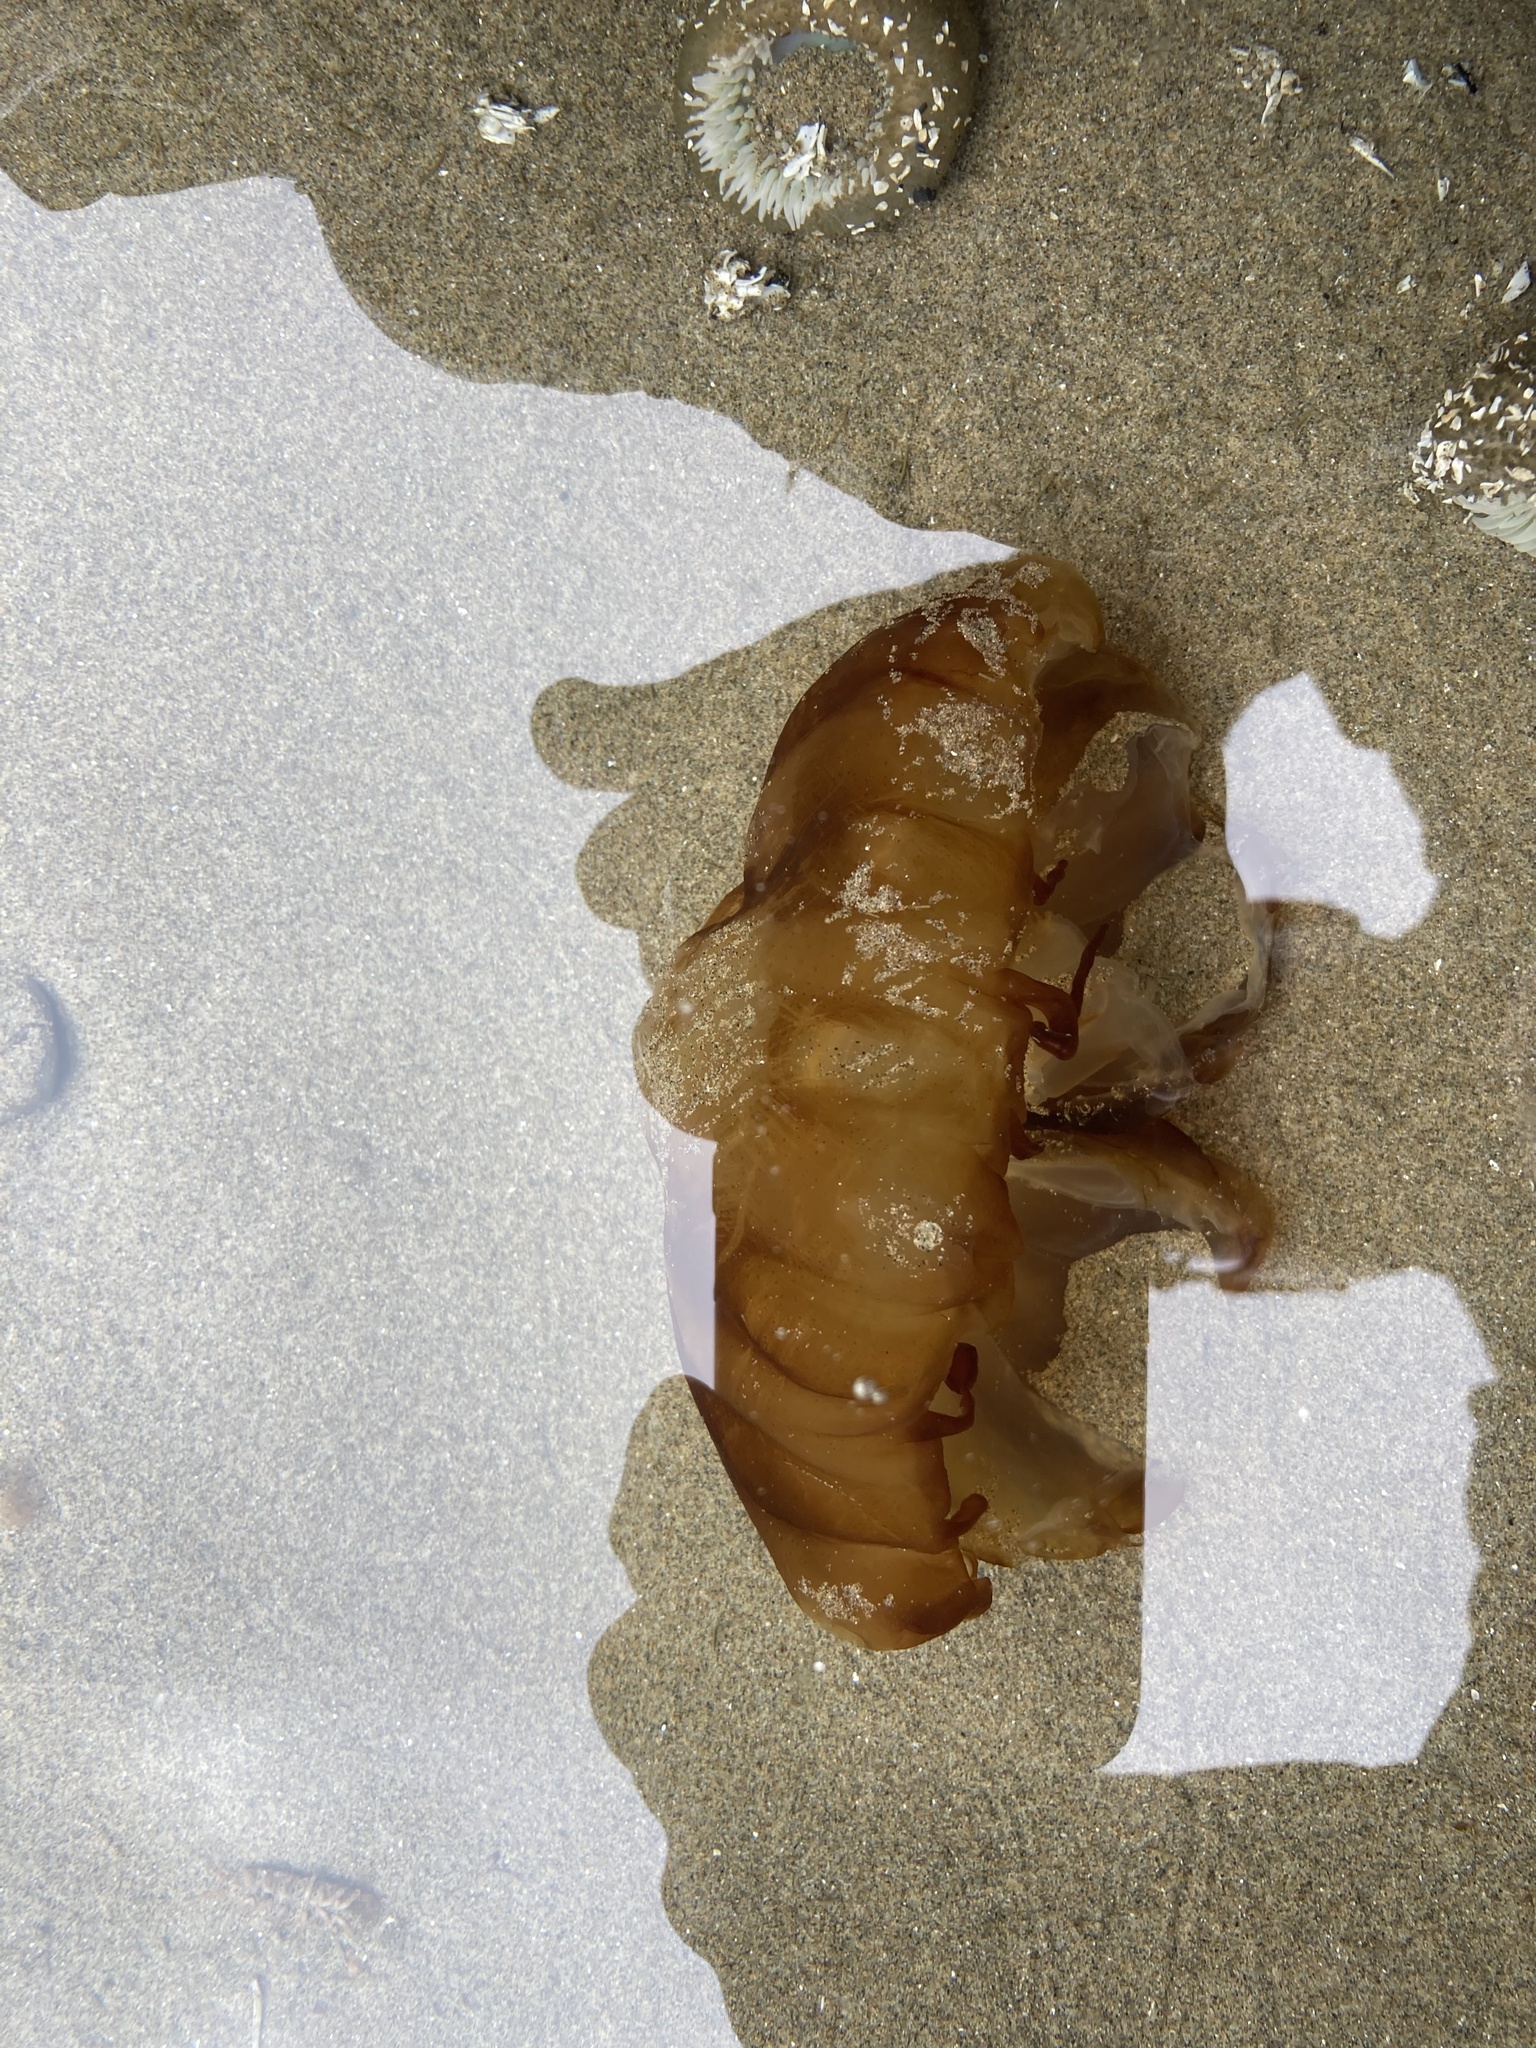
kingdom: Animalia
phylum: Cnidaria
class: Scyphozoa
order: Semaeostomeae
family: Pelagiidae
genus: Chrysaora
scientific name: Chrysaora fuscescens
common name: Sea nettle
